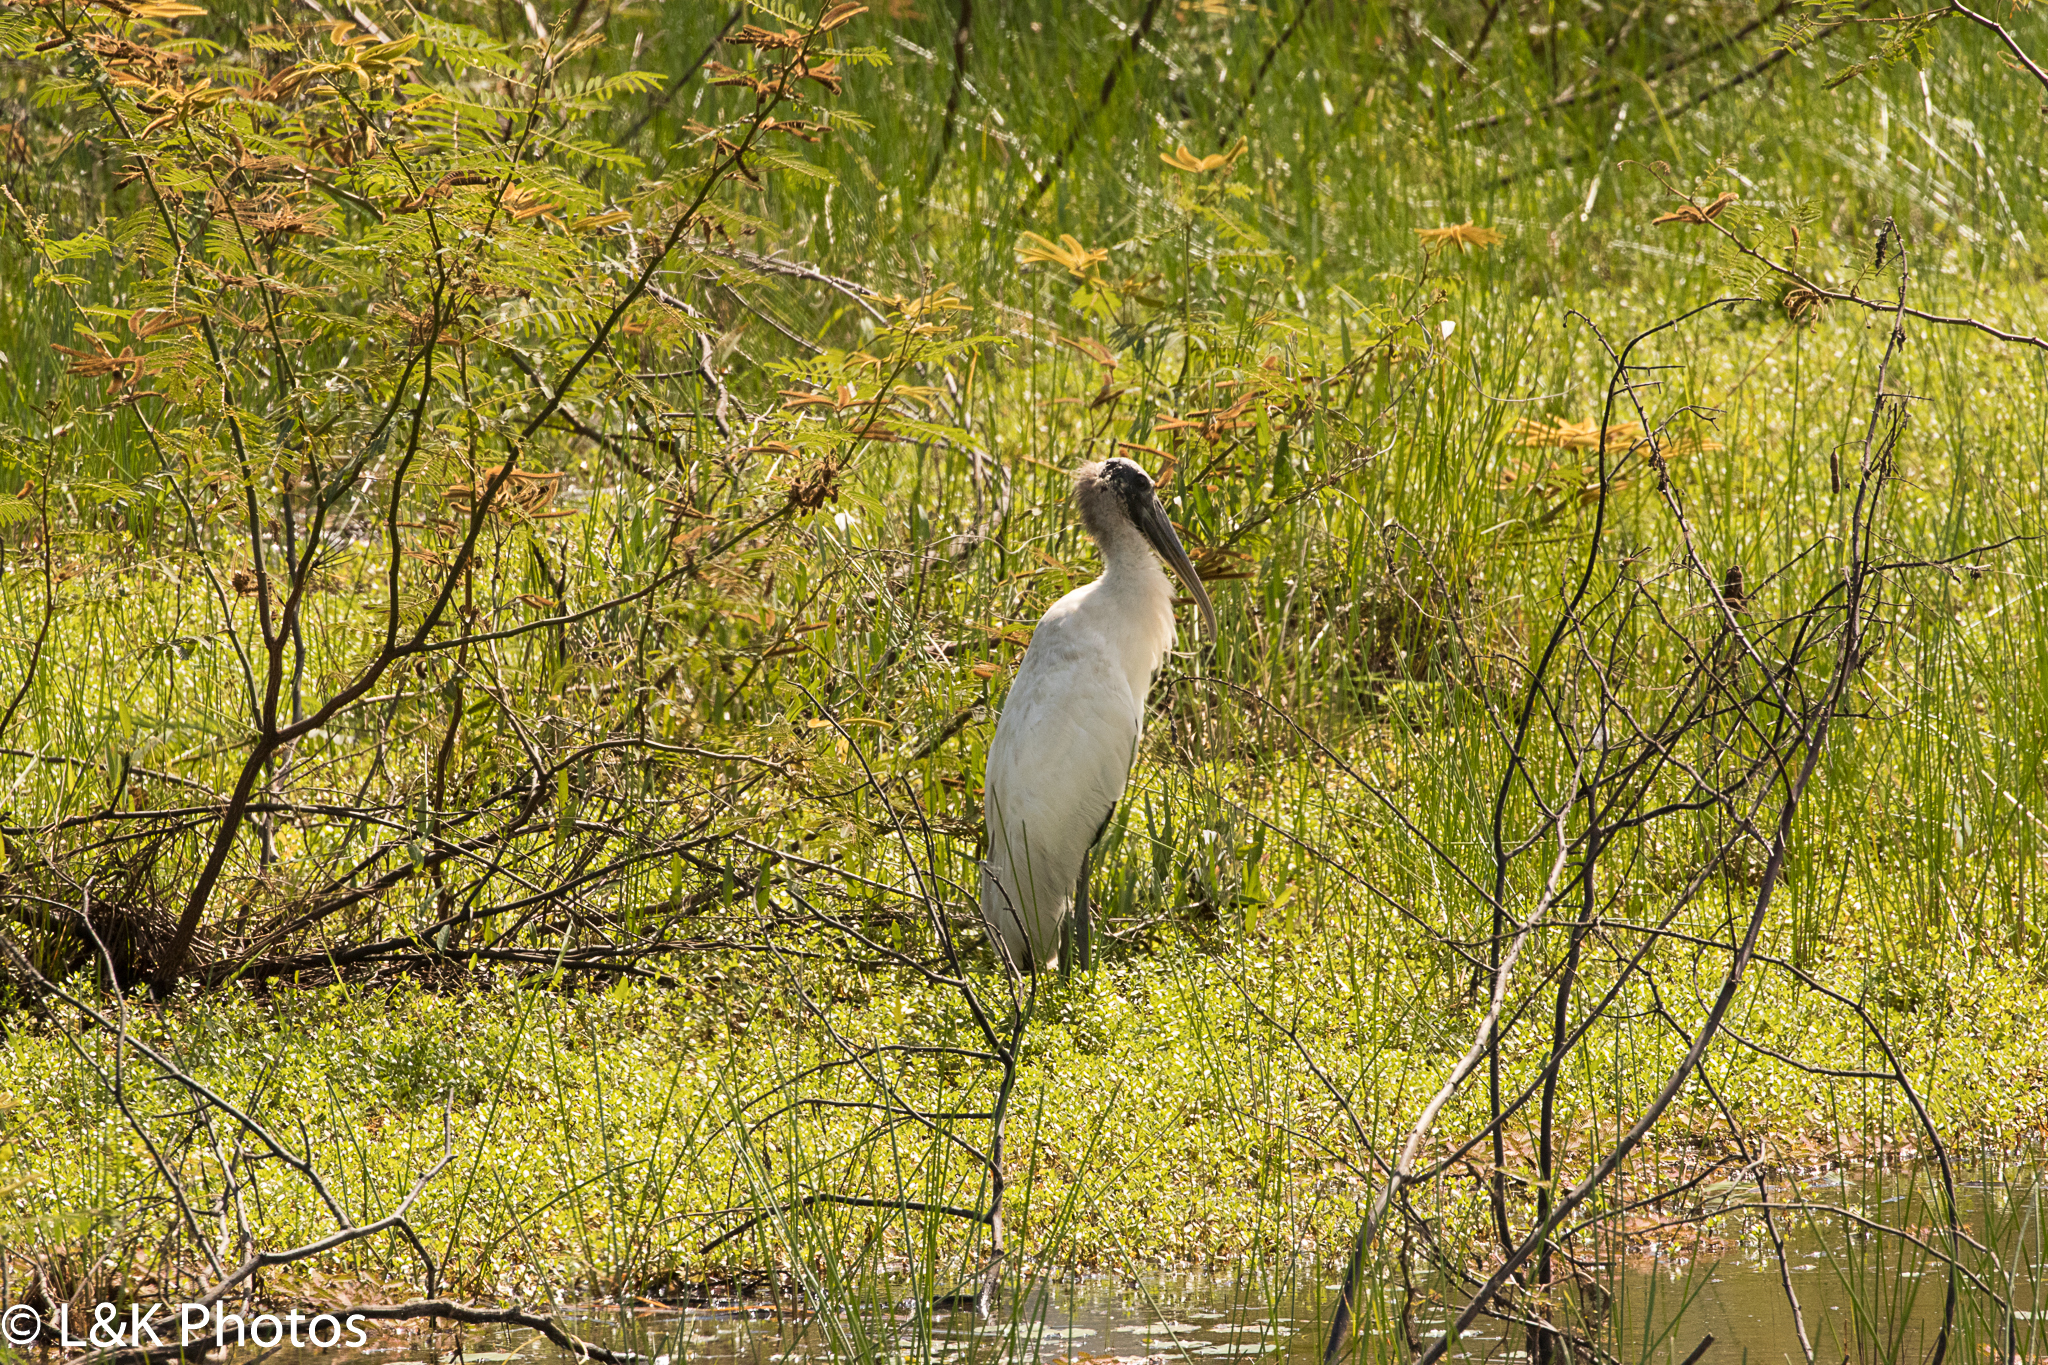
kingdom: Animalia
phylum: Chordata
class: Aves
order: Ciconiiformes
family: Ciconiidae
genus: Mycteria
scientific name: Mycteria americana
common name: Wood stork
